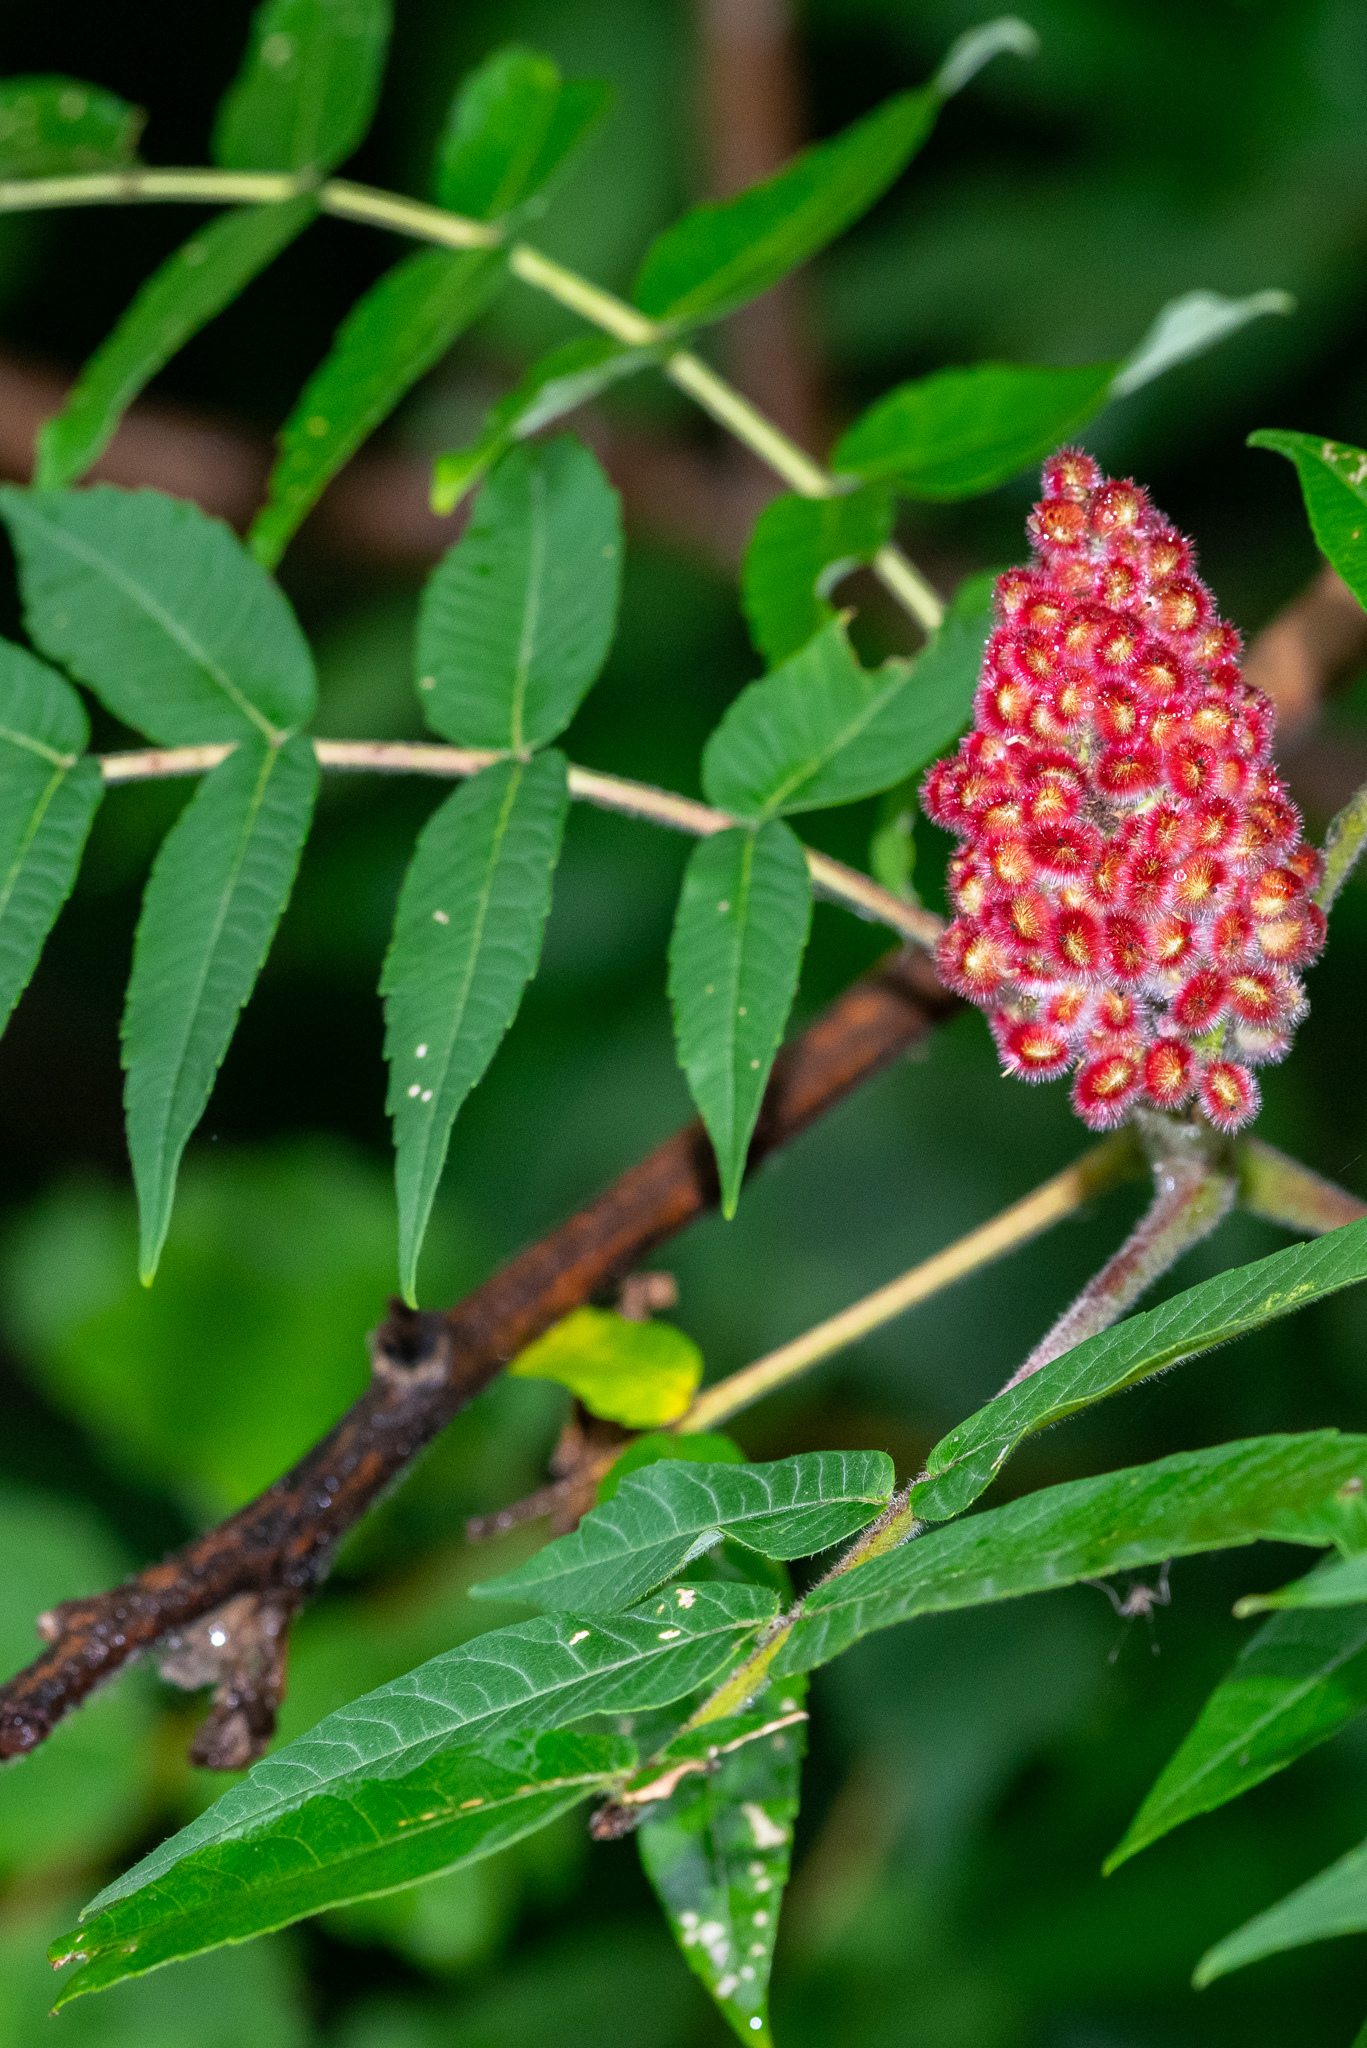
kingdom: Plantae
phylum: Tracheophyta
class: Magnoliopsida
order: Sapindales
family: Anacardiaceae
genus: Rhus
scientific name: Rhus typhina
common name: Staghorn sumac
